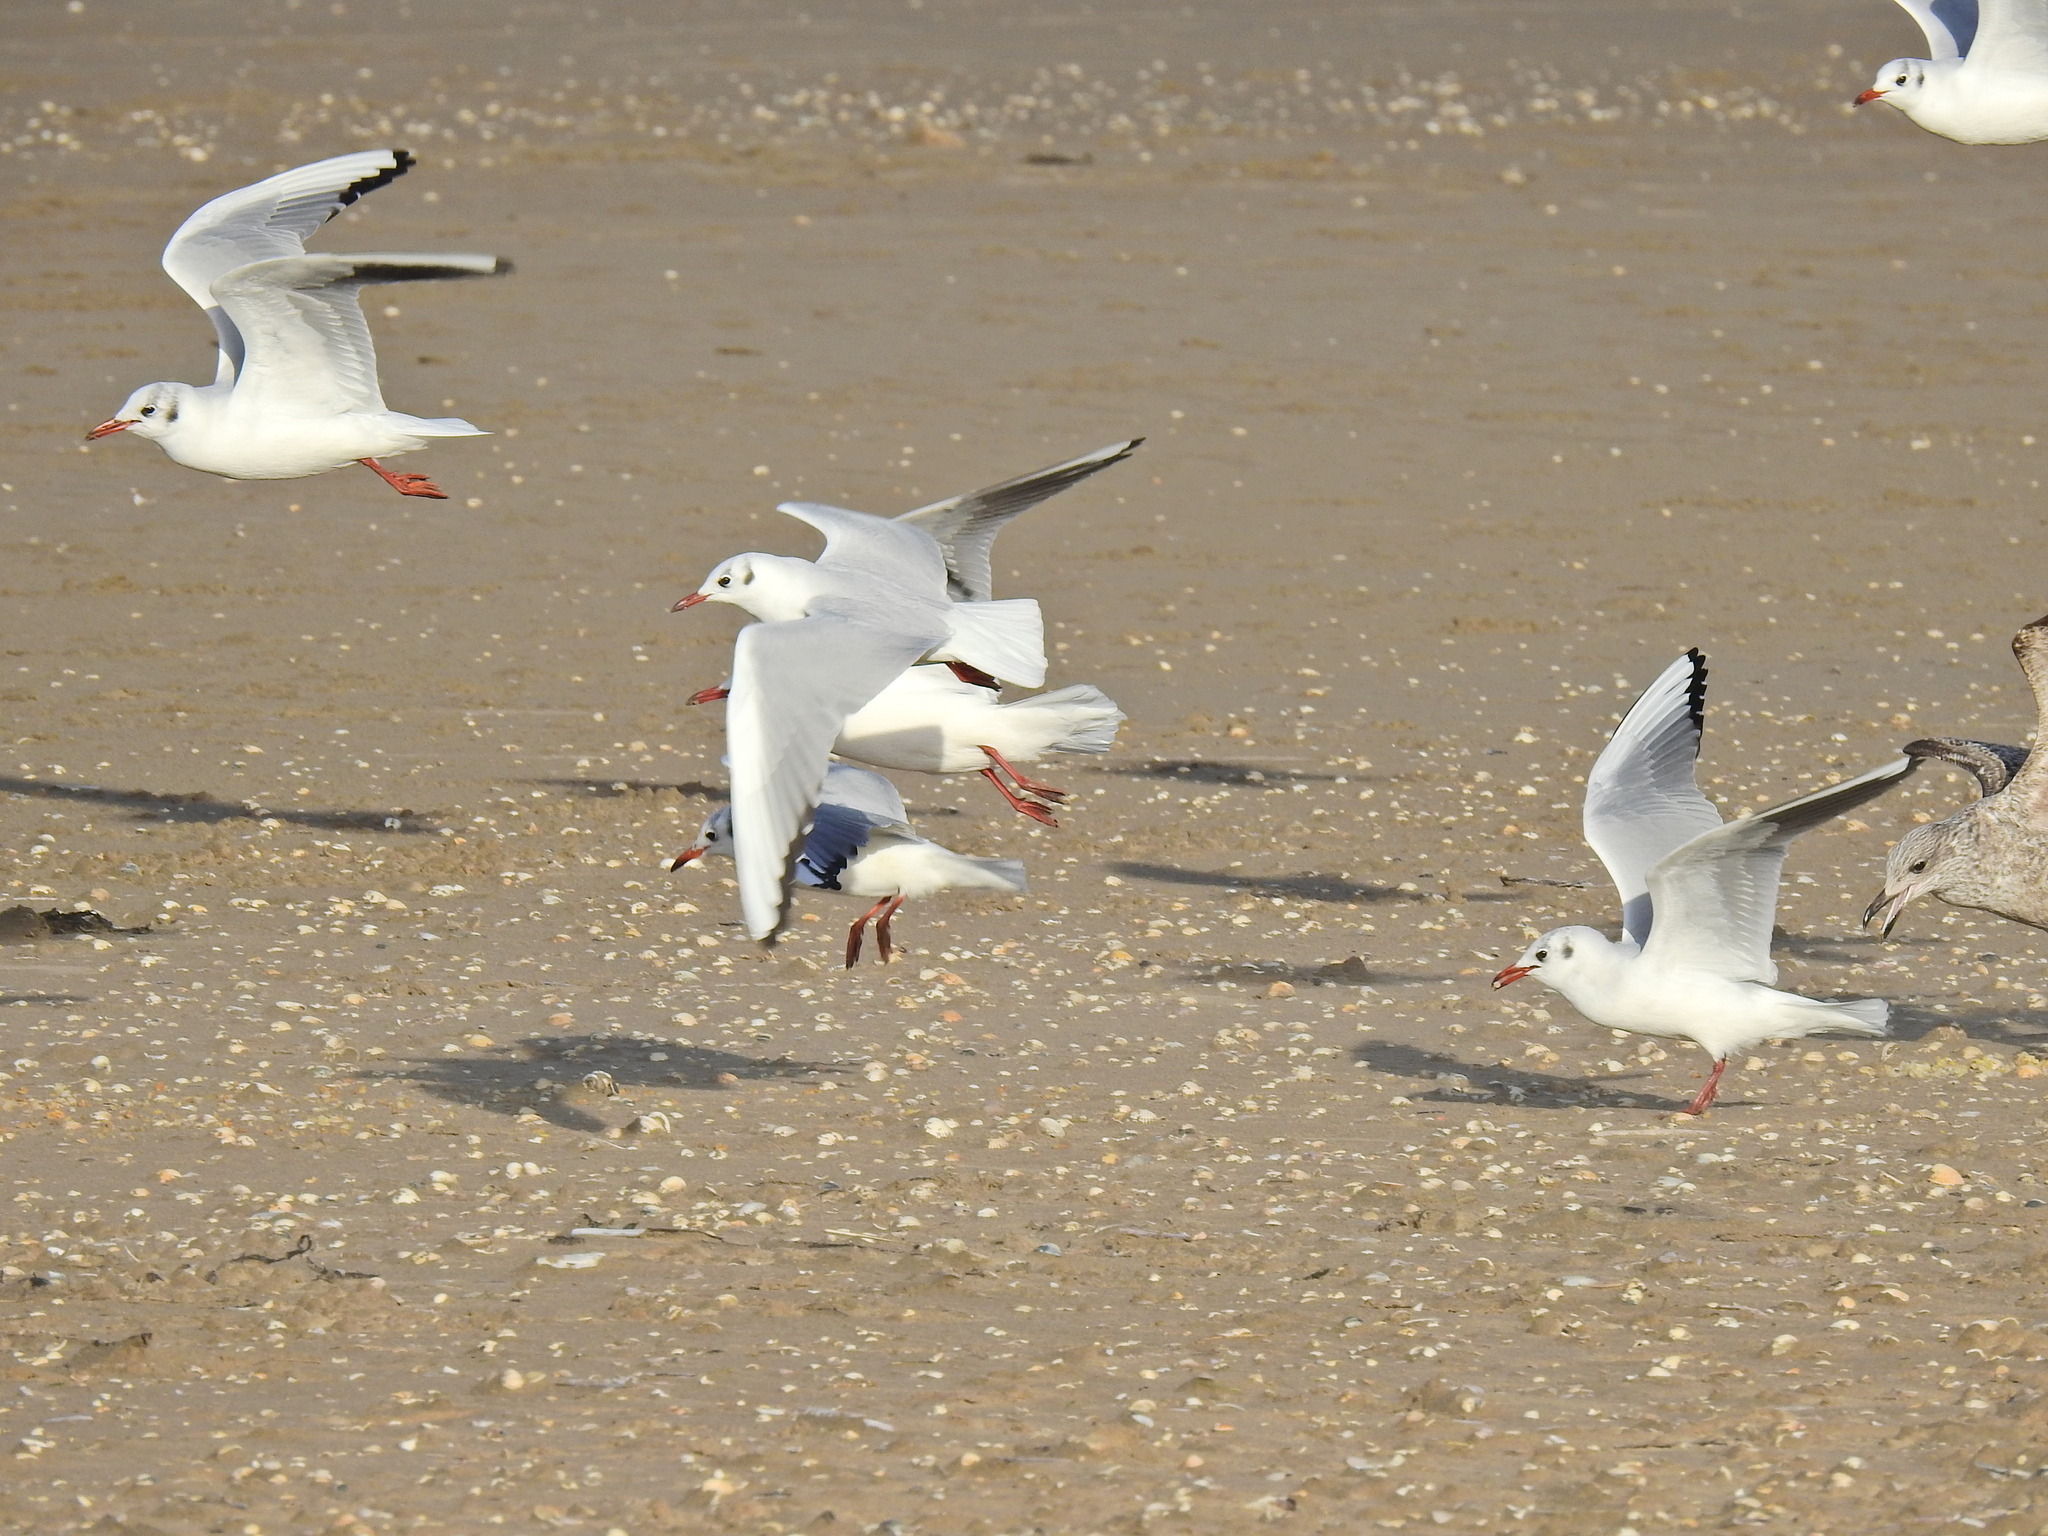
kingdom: Animalia
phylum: Chordata
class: Aves
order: Charadriiformes
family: Laridae
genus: Chroicocephalus
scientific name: Chroicocephalus ridibundus
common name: Black-headed gull
